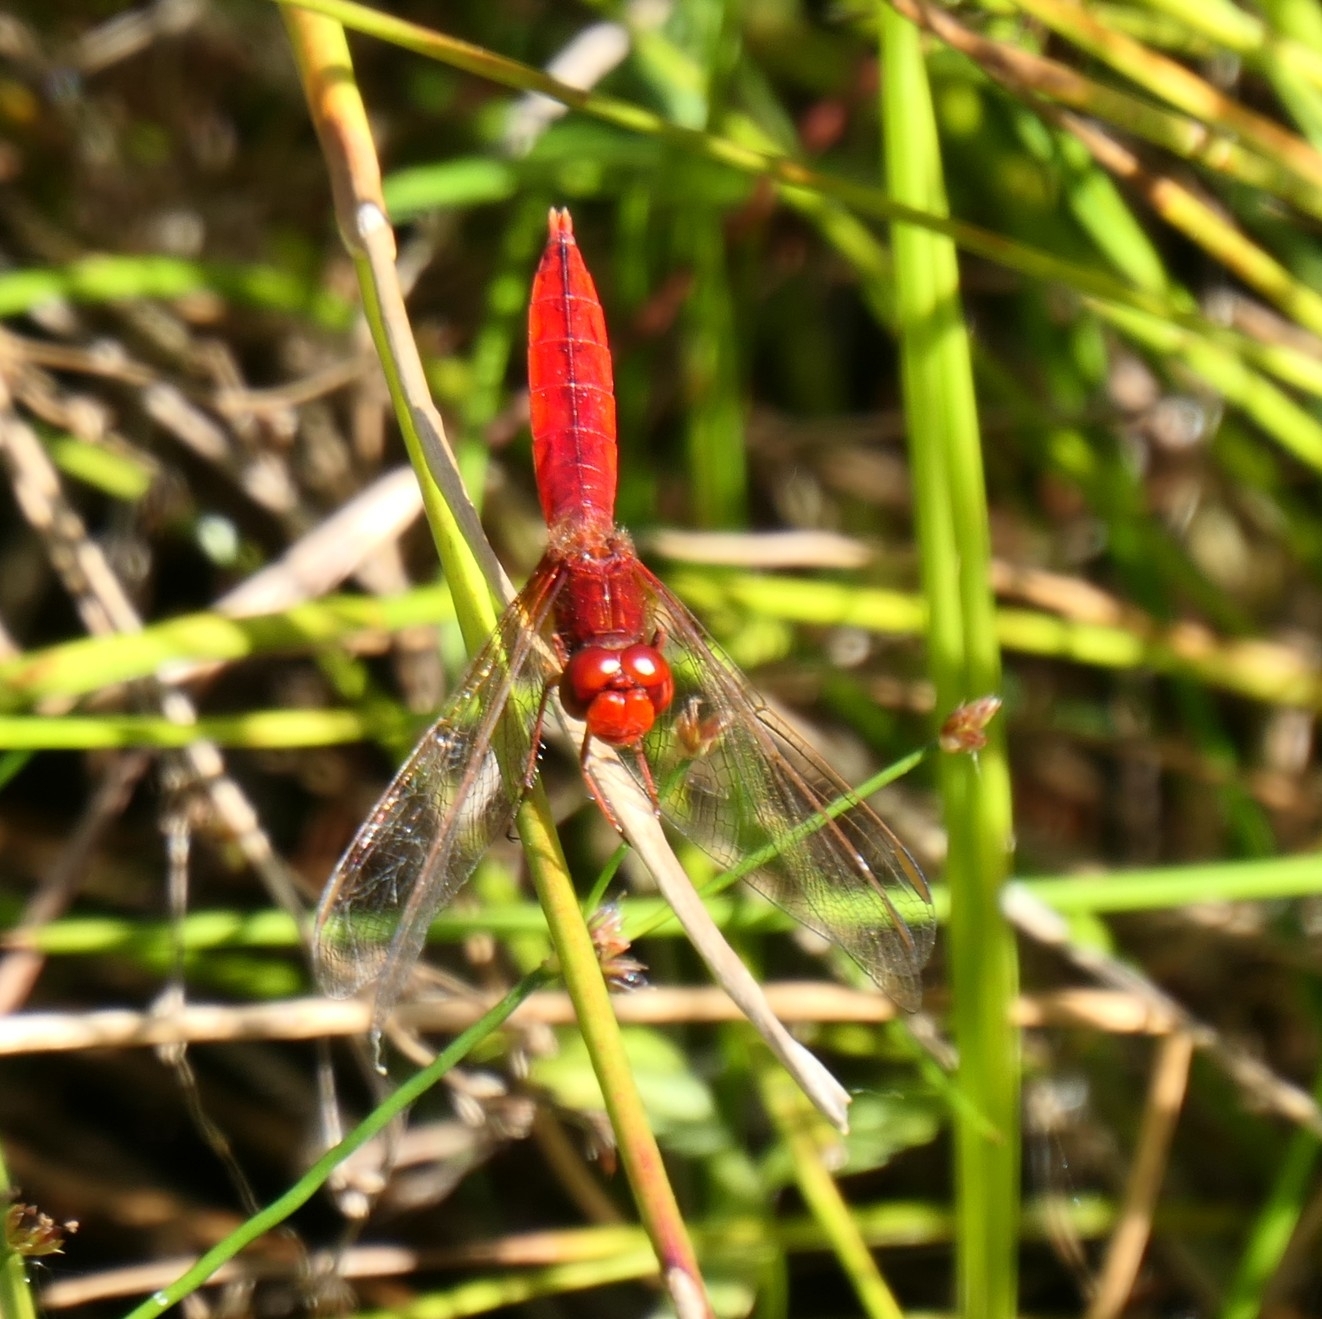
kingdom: Animalia
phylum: Arthropoda
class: Insecta
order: Odonata
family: Libellulidae
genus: Crocothemis
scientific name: Crocothemis erythraea
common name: Scarlet dragonfly
